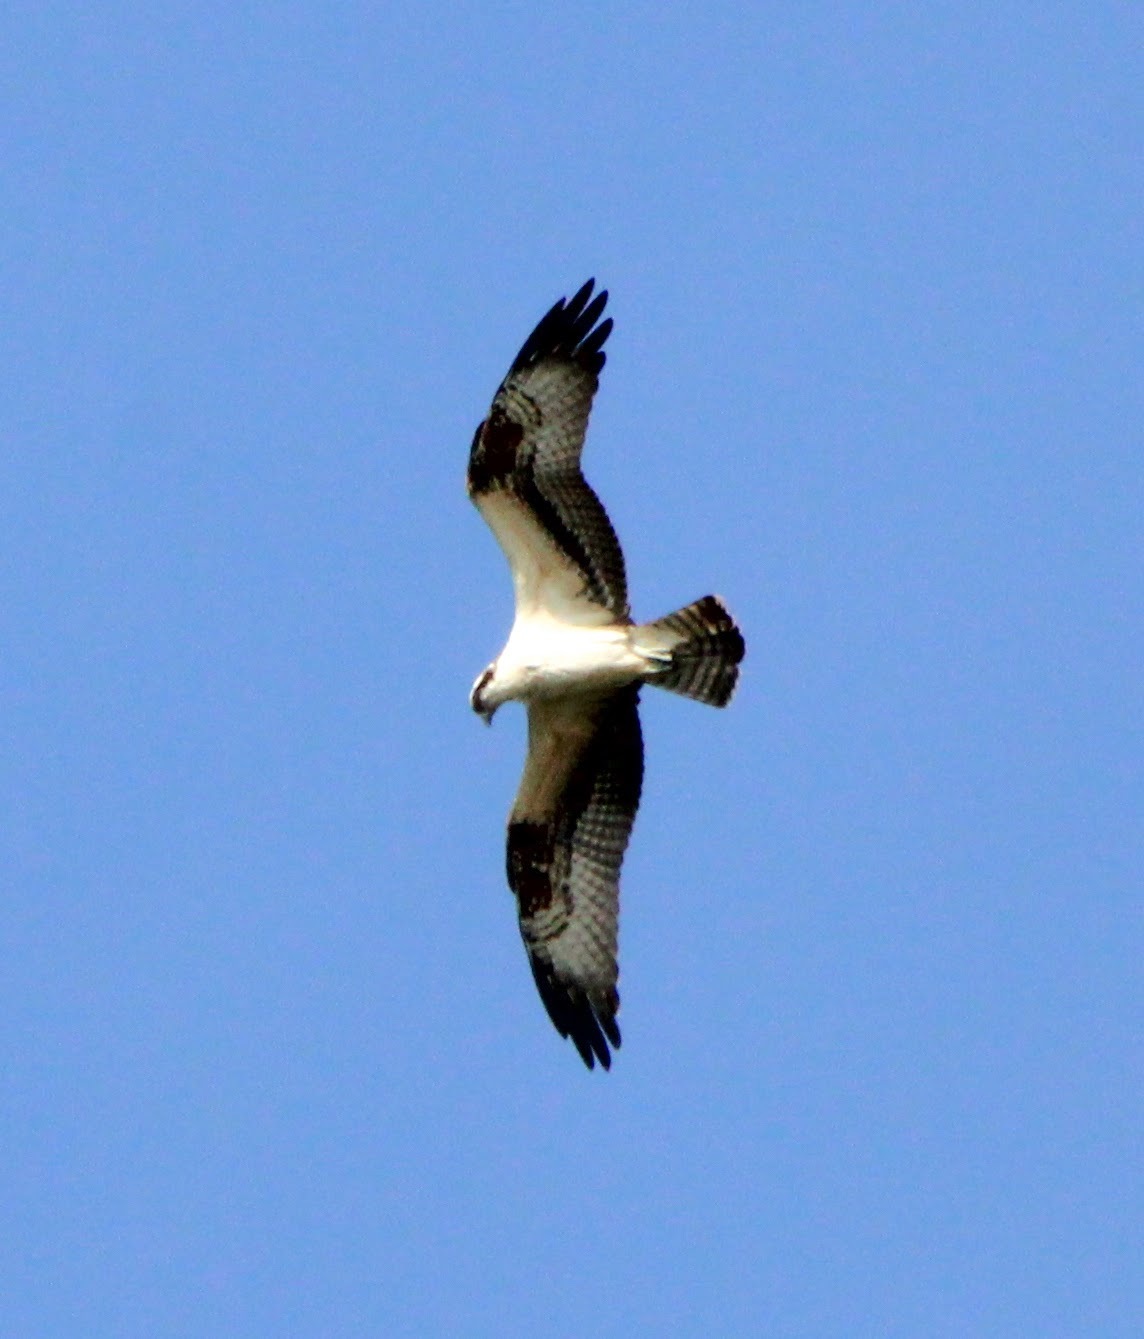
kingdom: Animalia
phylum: Chordata
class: Aves
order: Accipitriformes
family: Pandionidae
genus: Pandion
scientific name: Pandion haliaetus
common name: Osprey
